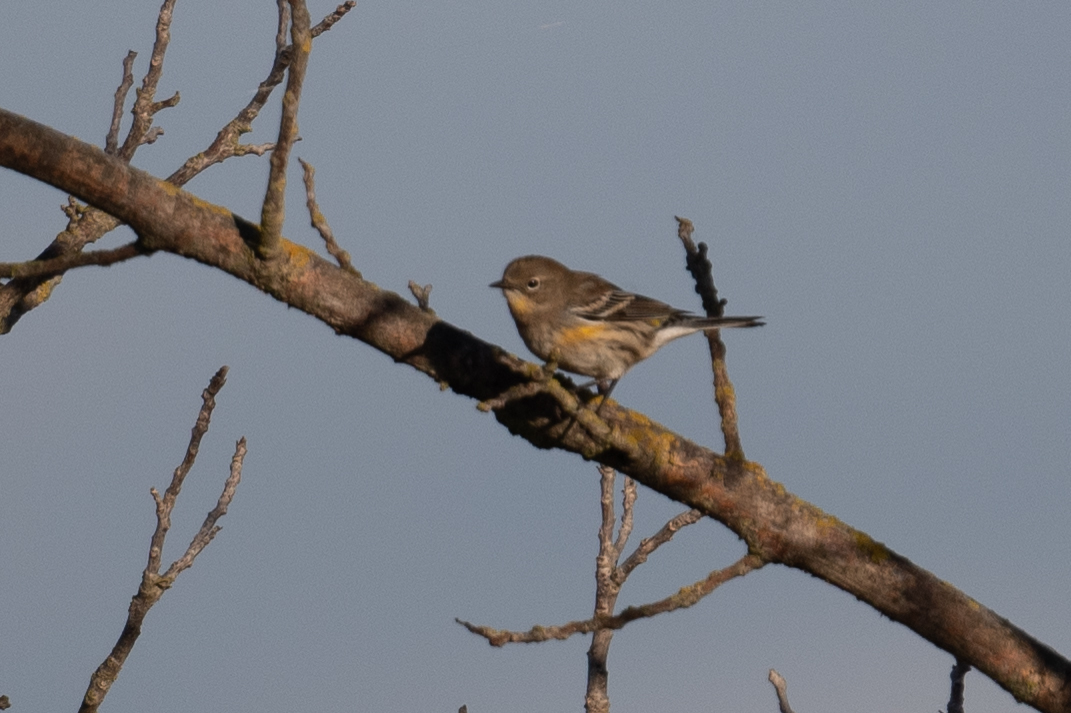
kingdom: Animalia
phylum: Chordata
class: Aves
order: Passeriformes
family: Parulidae
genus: Setophaga
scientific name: Setophaga coronata
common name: Myrtle warbler
